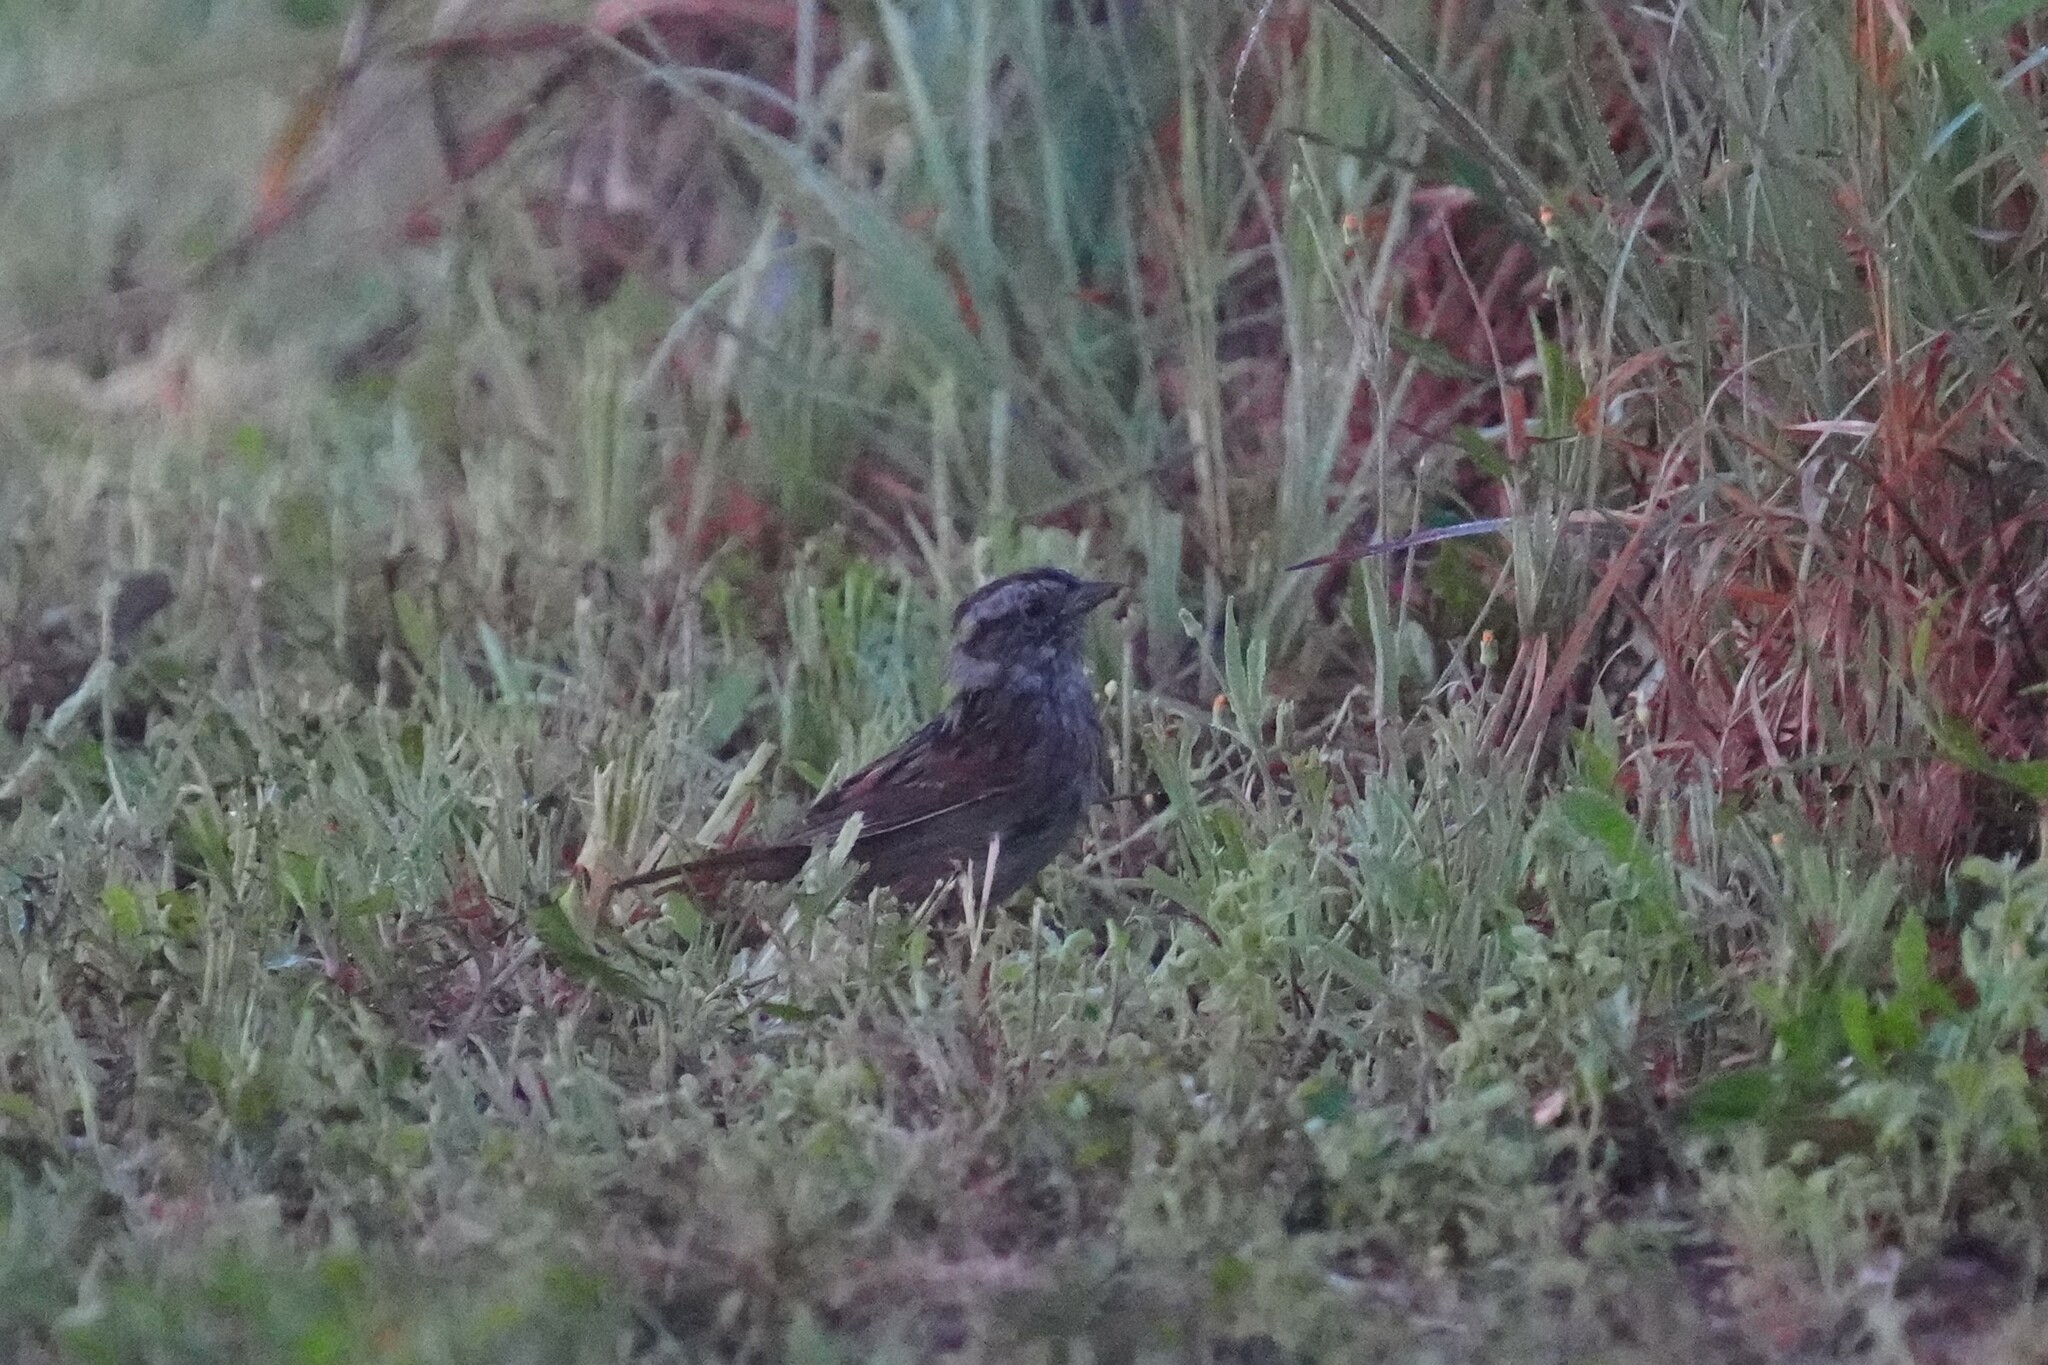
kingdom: Animalia
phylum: Chordata
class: Aves
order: Passeriformes
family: Passerellidae
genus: Melospiza
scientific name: Melospiza georgiana
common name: Swamp sparrow
